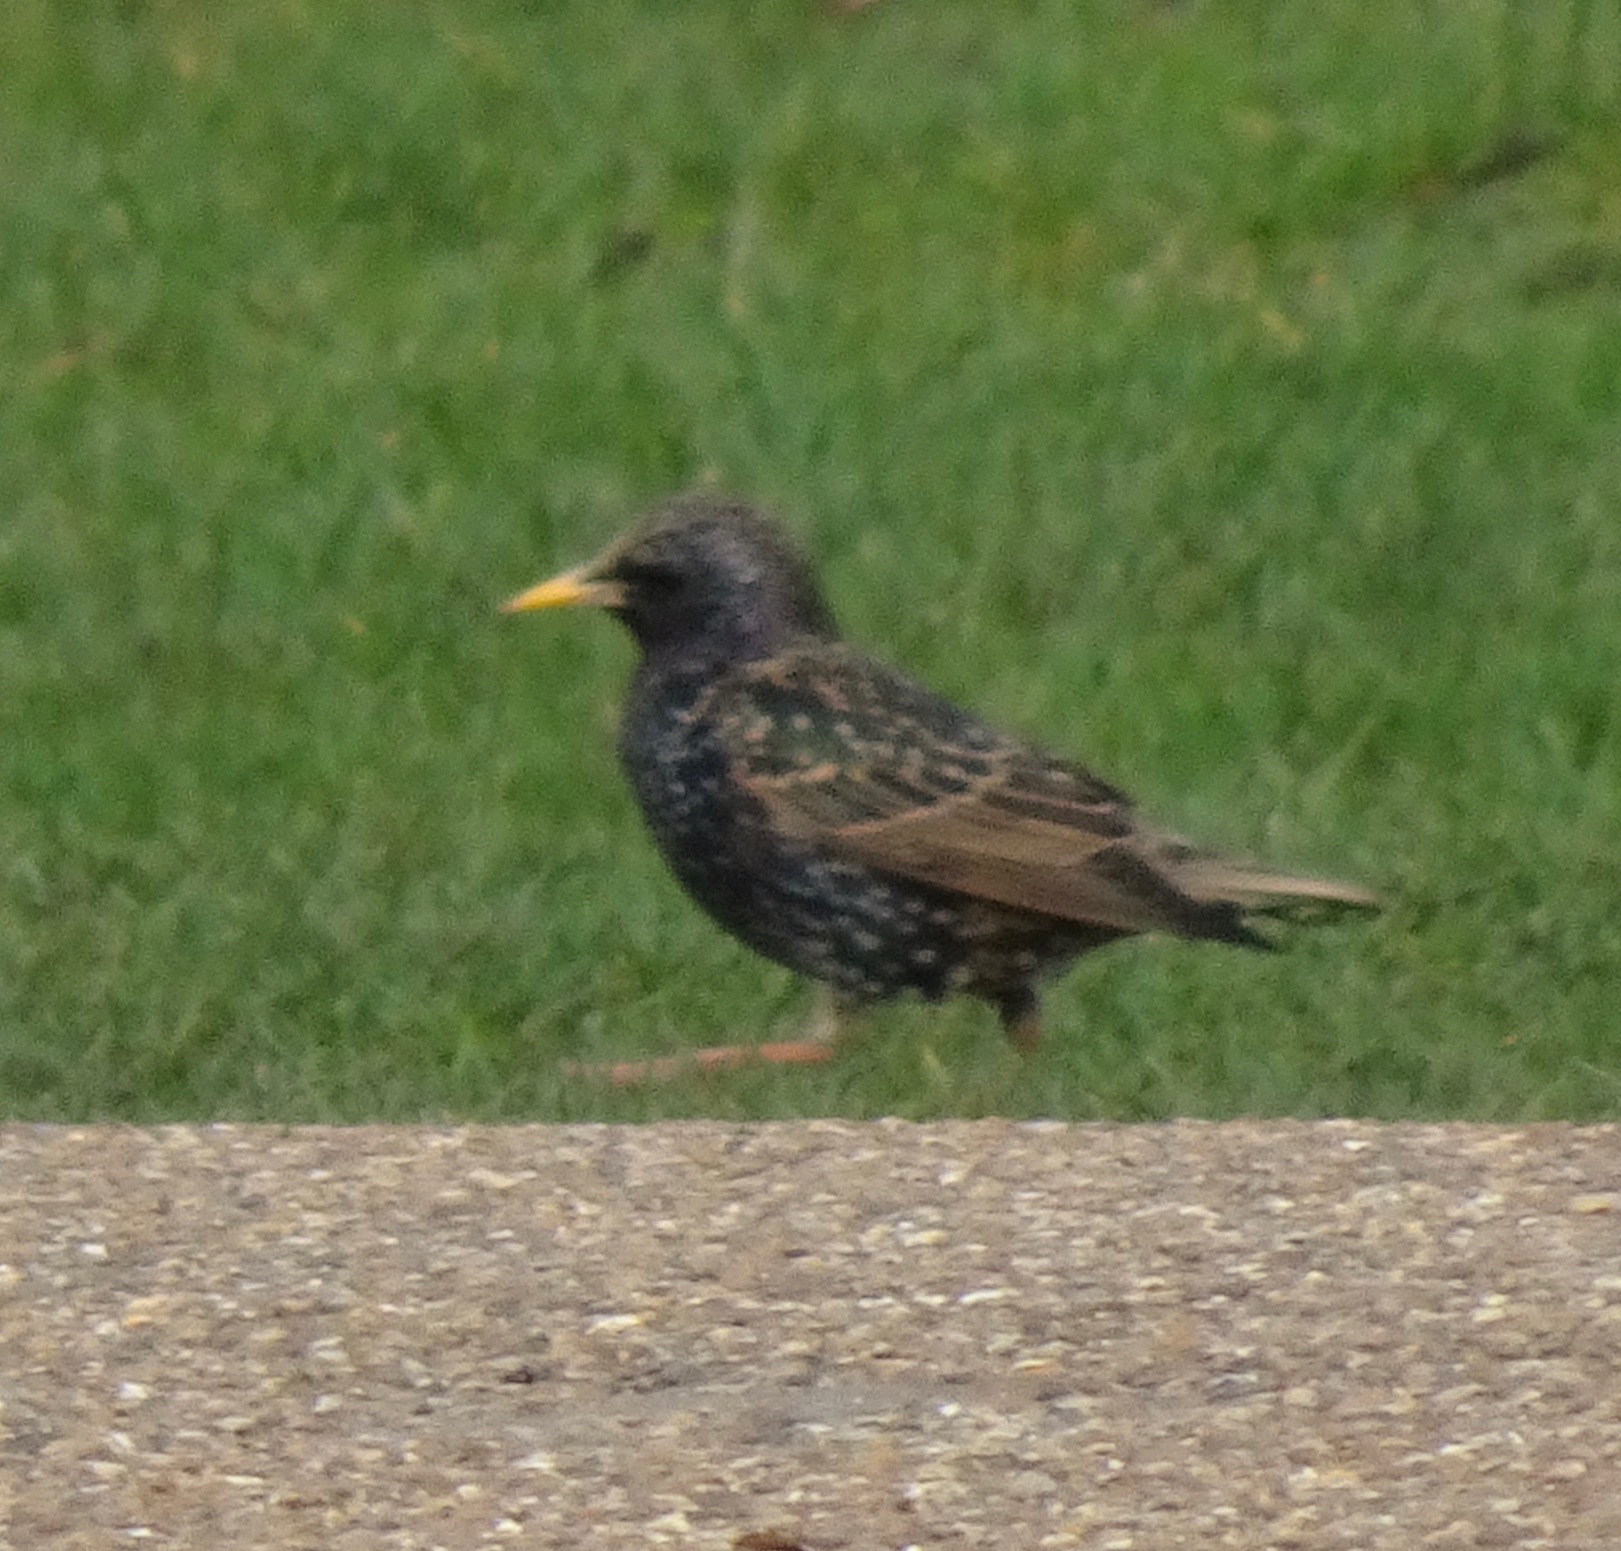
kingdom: Animalia
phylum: Chordata
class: Aves
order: Passeriformes
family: Sturnidae
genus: Sturnus
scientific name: Sturnus vulgaris
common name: Common starling
